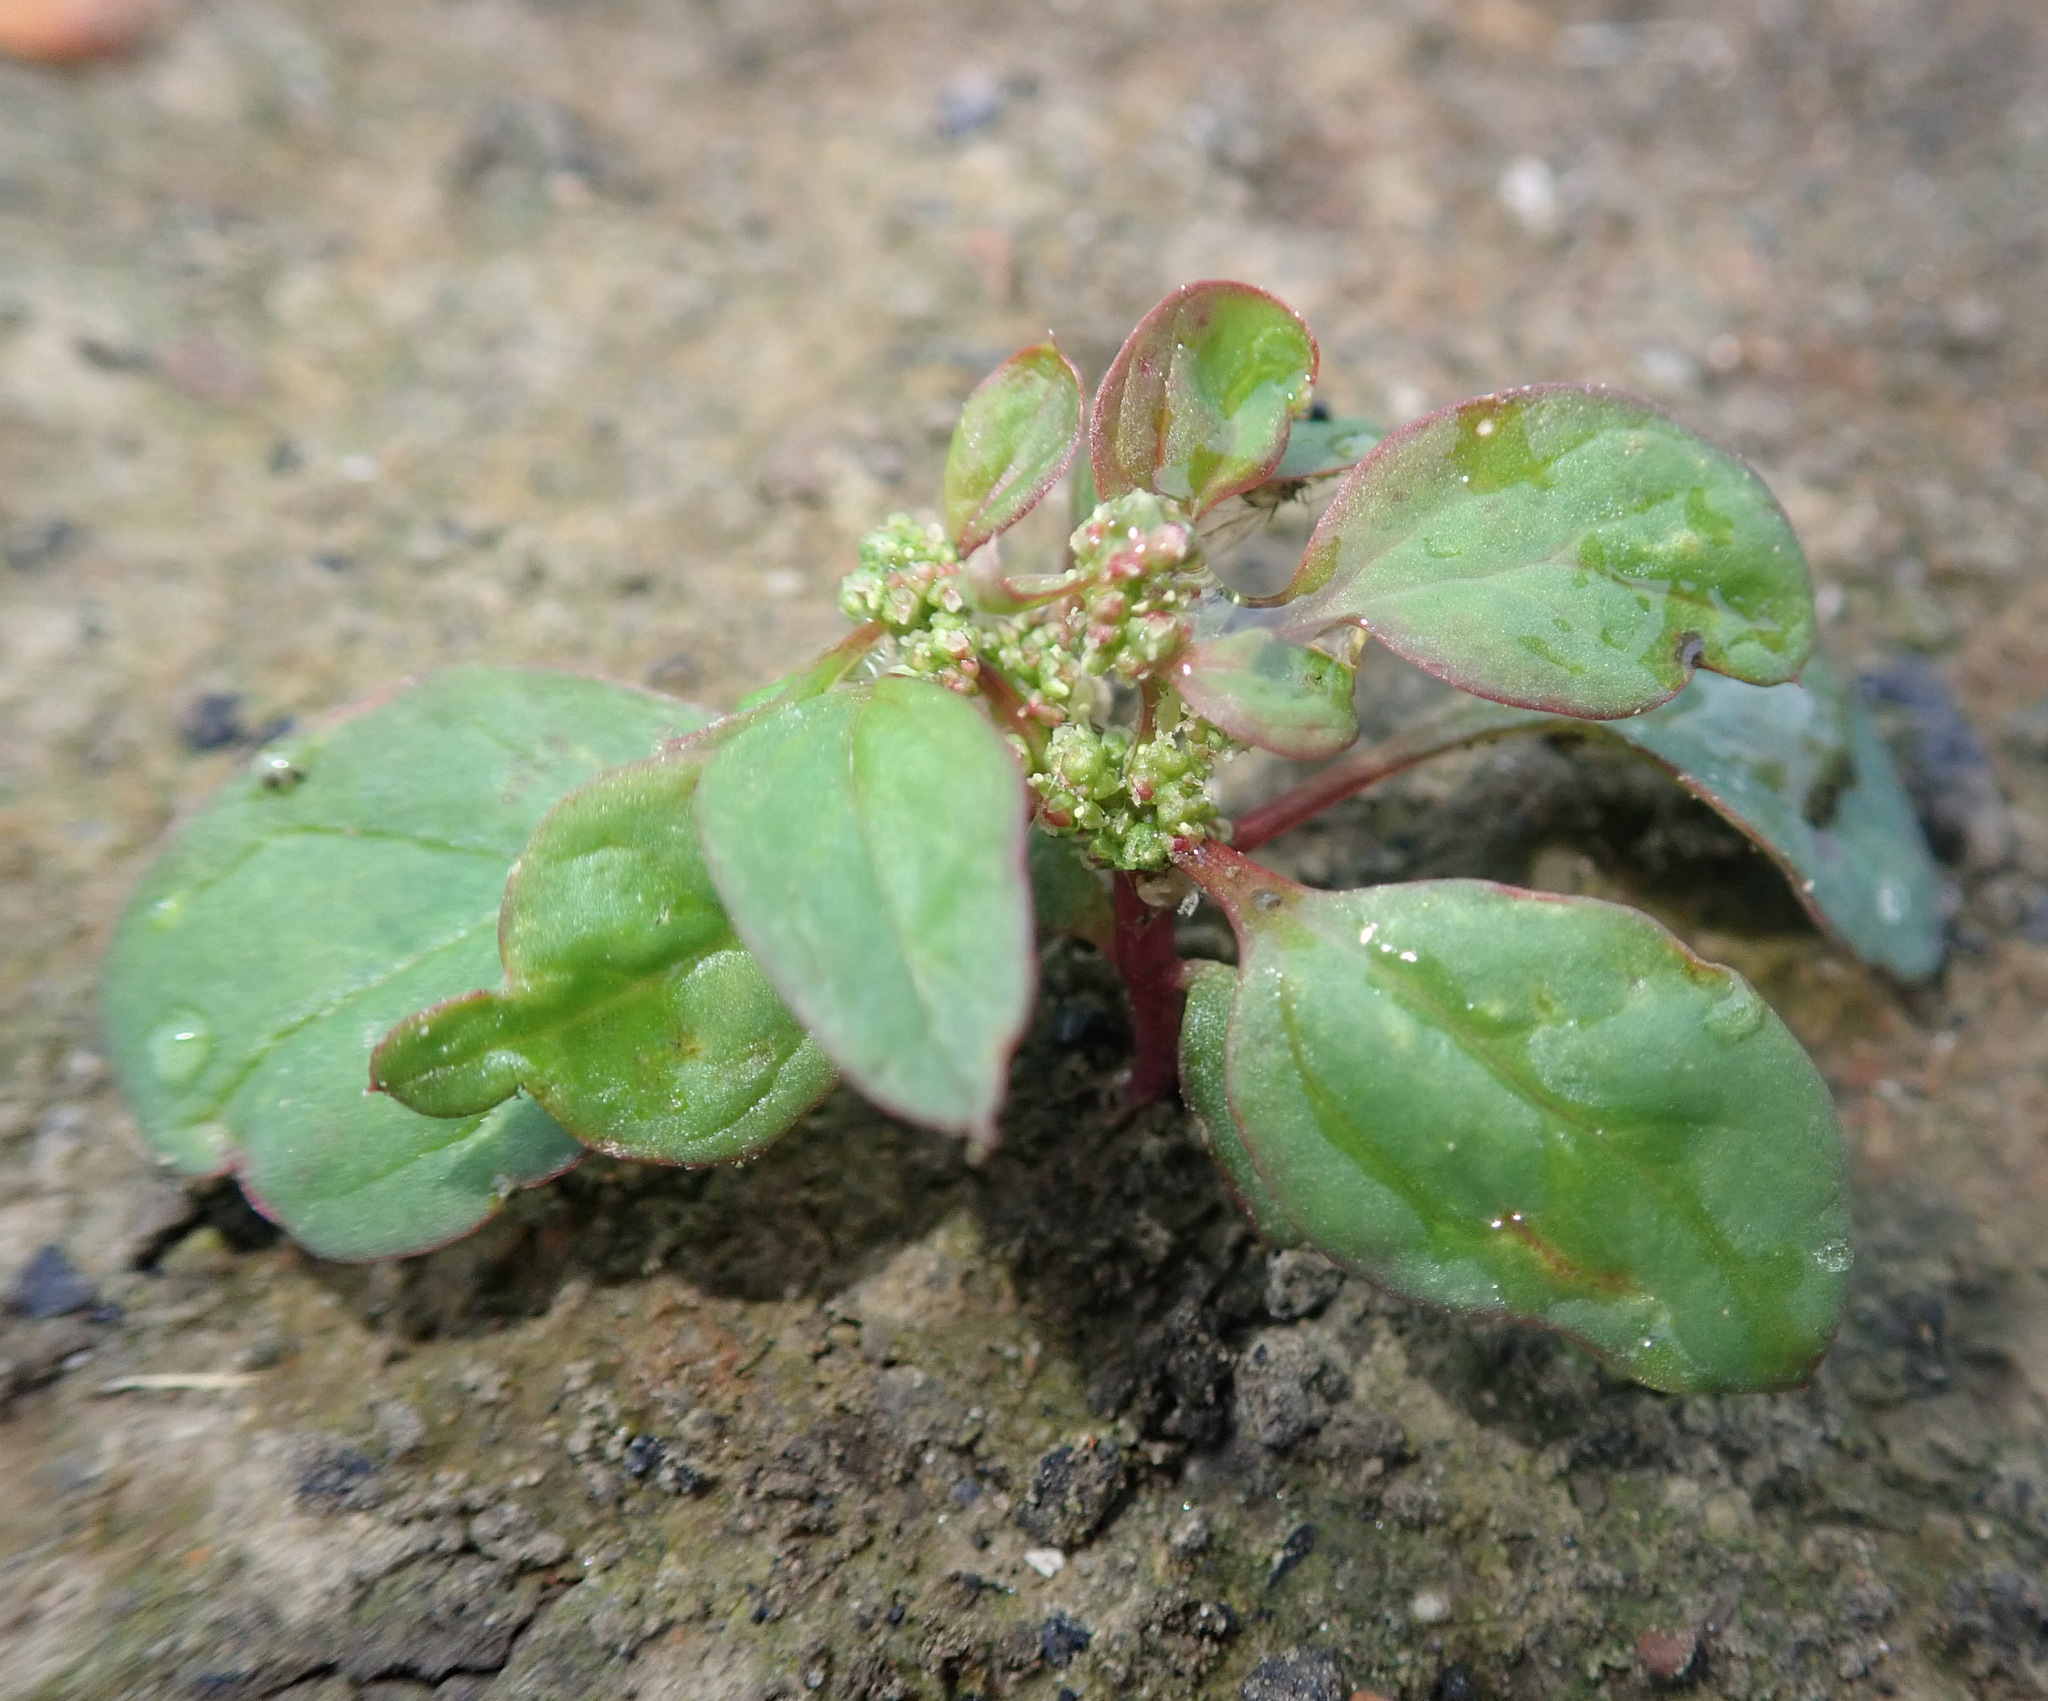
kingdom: Plantae
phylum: Tracheophyta
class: Magnoliopsida
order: Caryophyllales
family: Amaranthaceae
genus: Lipandra
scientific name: Lipandra polysperma
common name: Many-seed goosefoot
